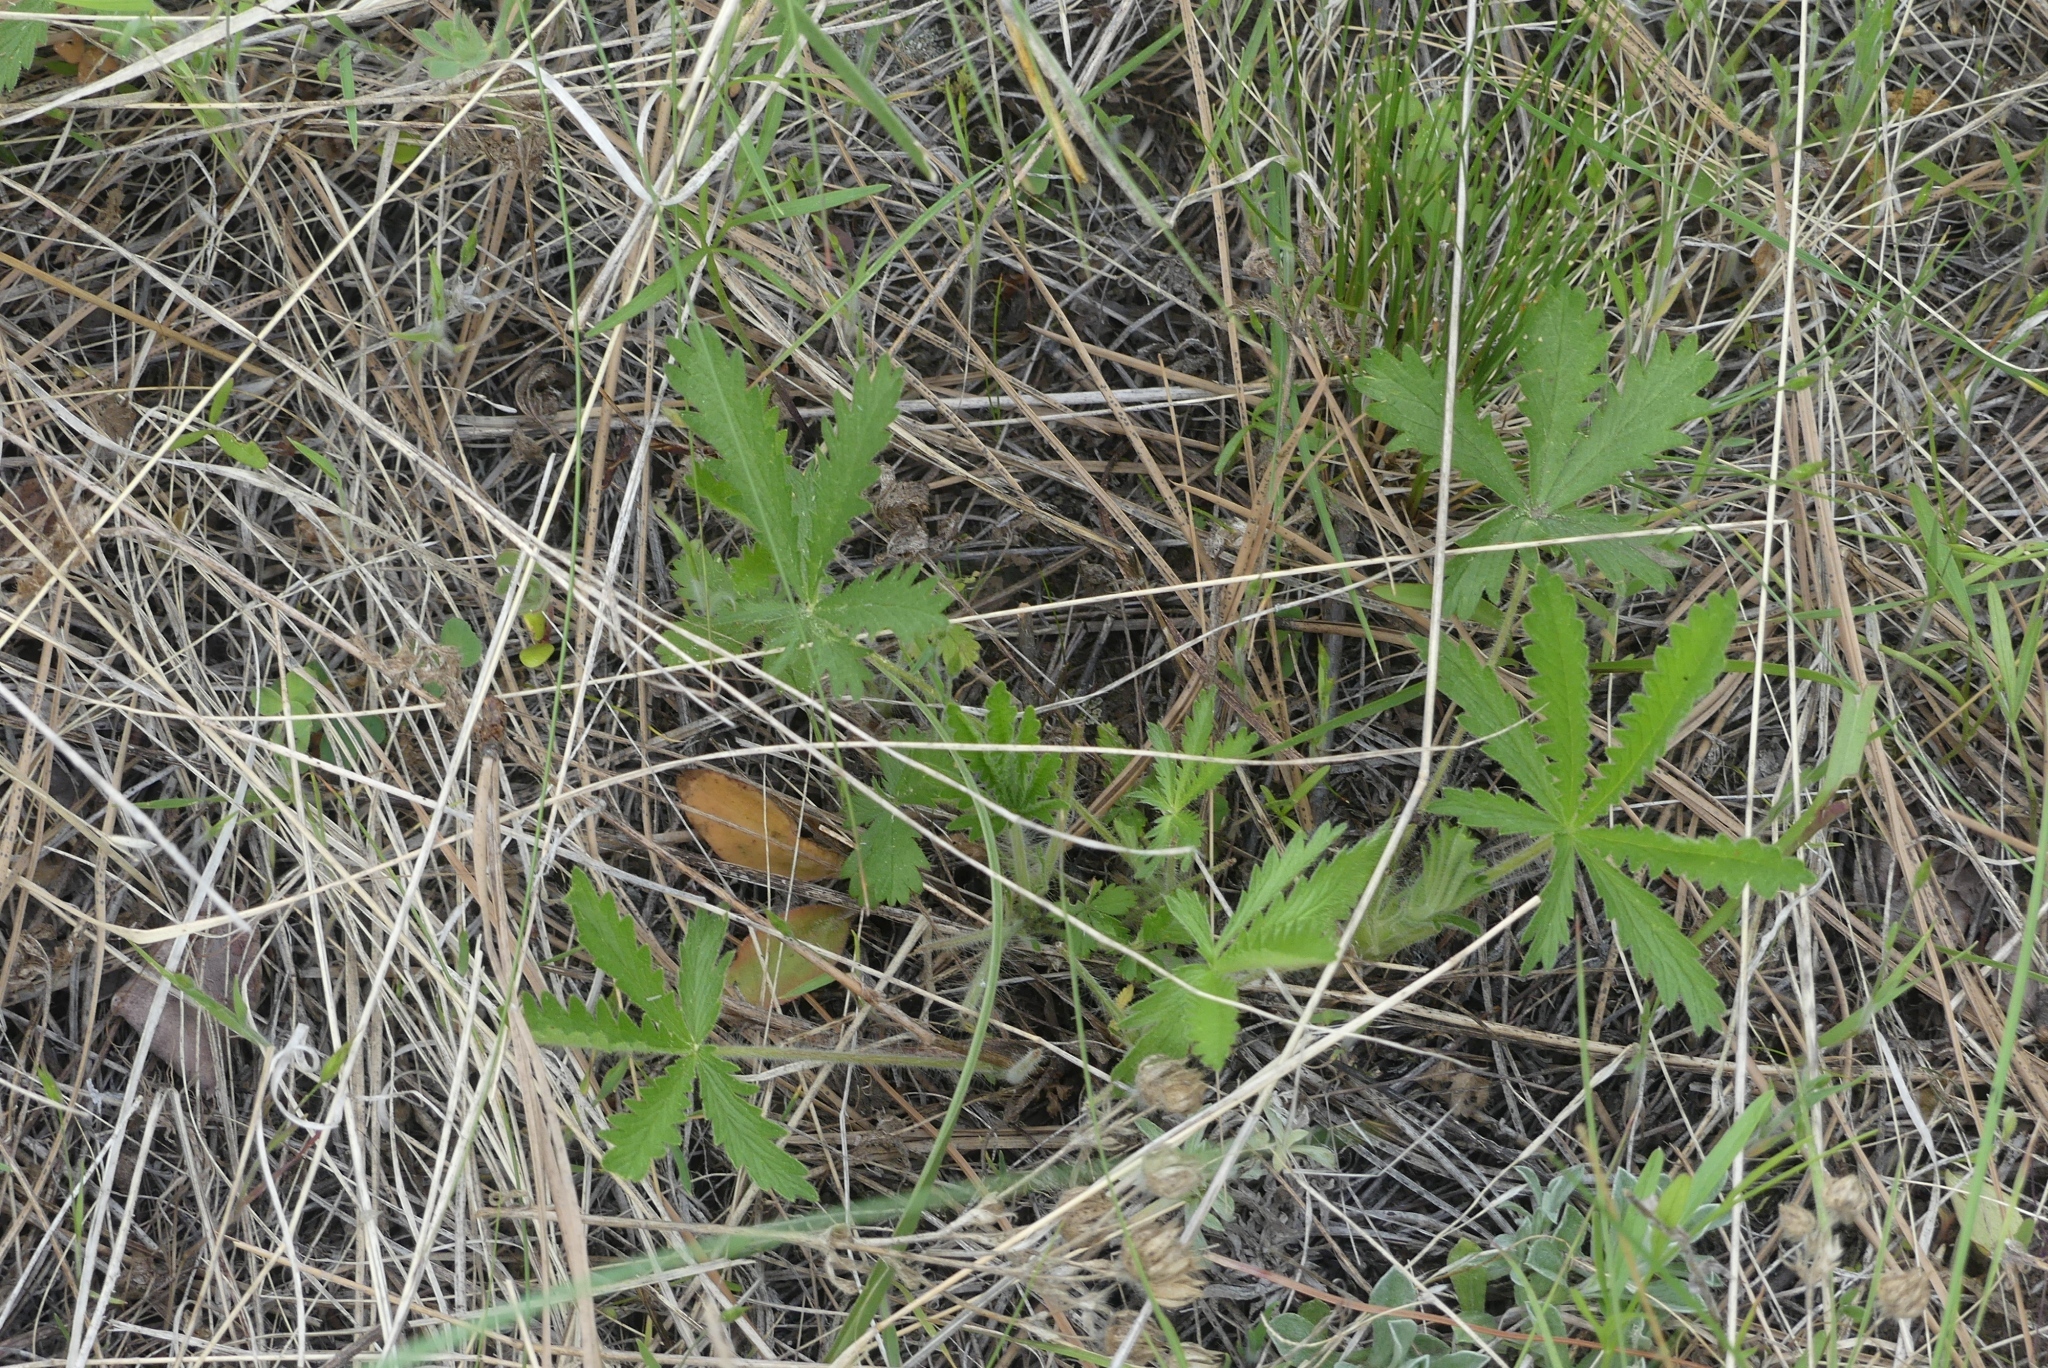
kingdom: Plantae
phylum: Tracheophyta
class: Magnoliopsida
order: Rosales
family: Rosaceae
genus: Potentilla
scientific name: Potentilla recta
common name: Sulphur cinquefoil
